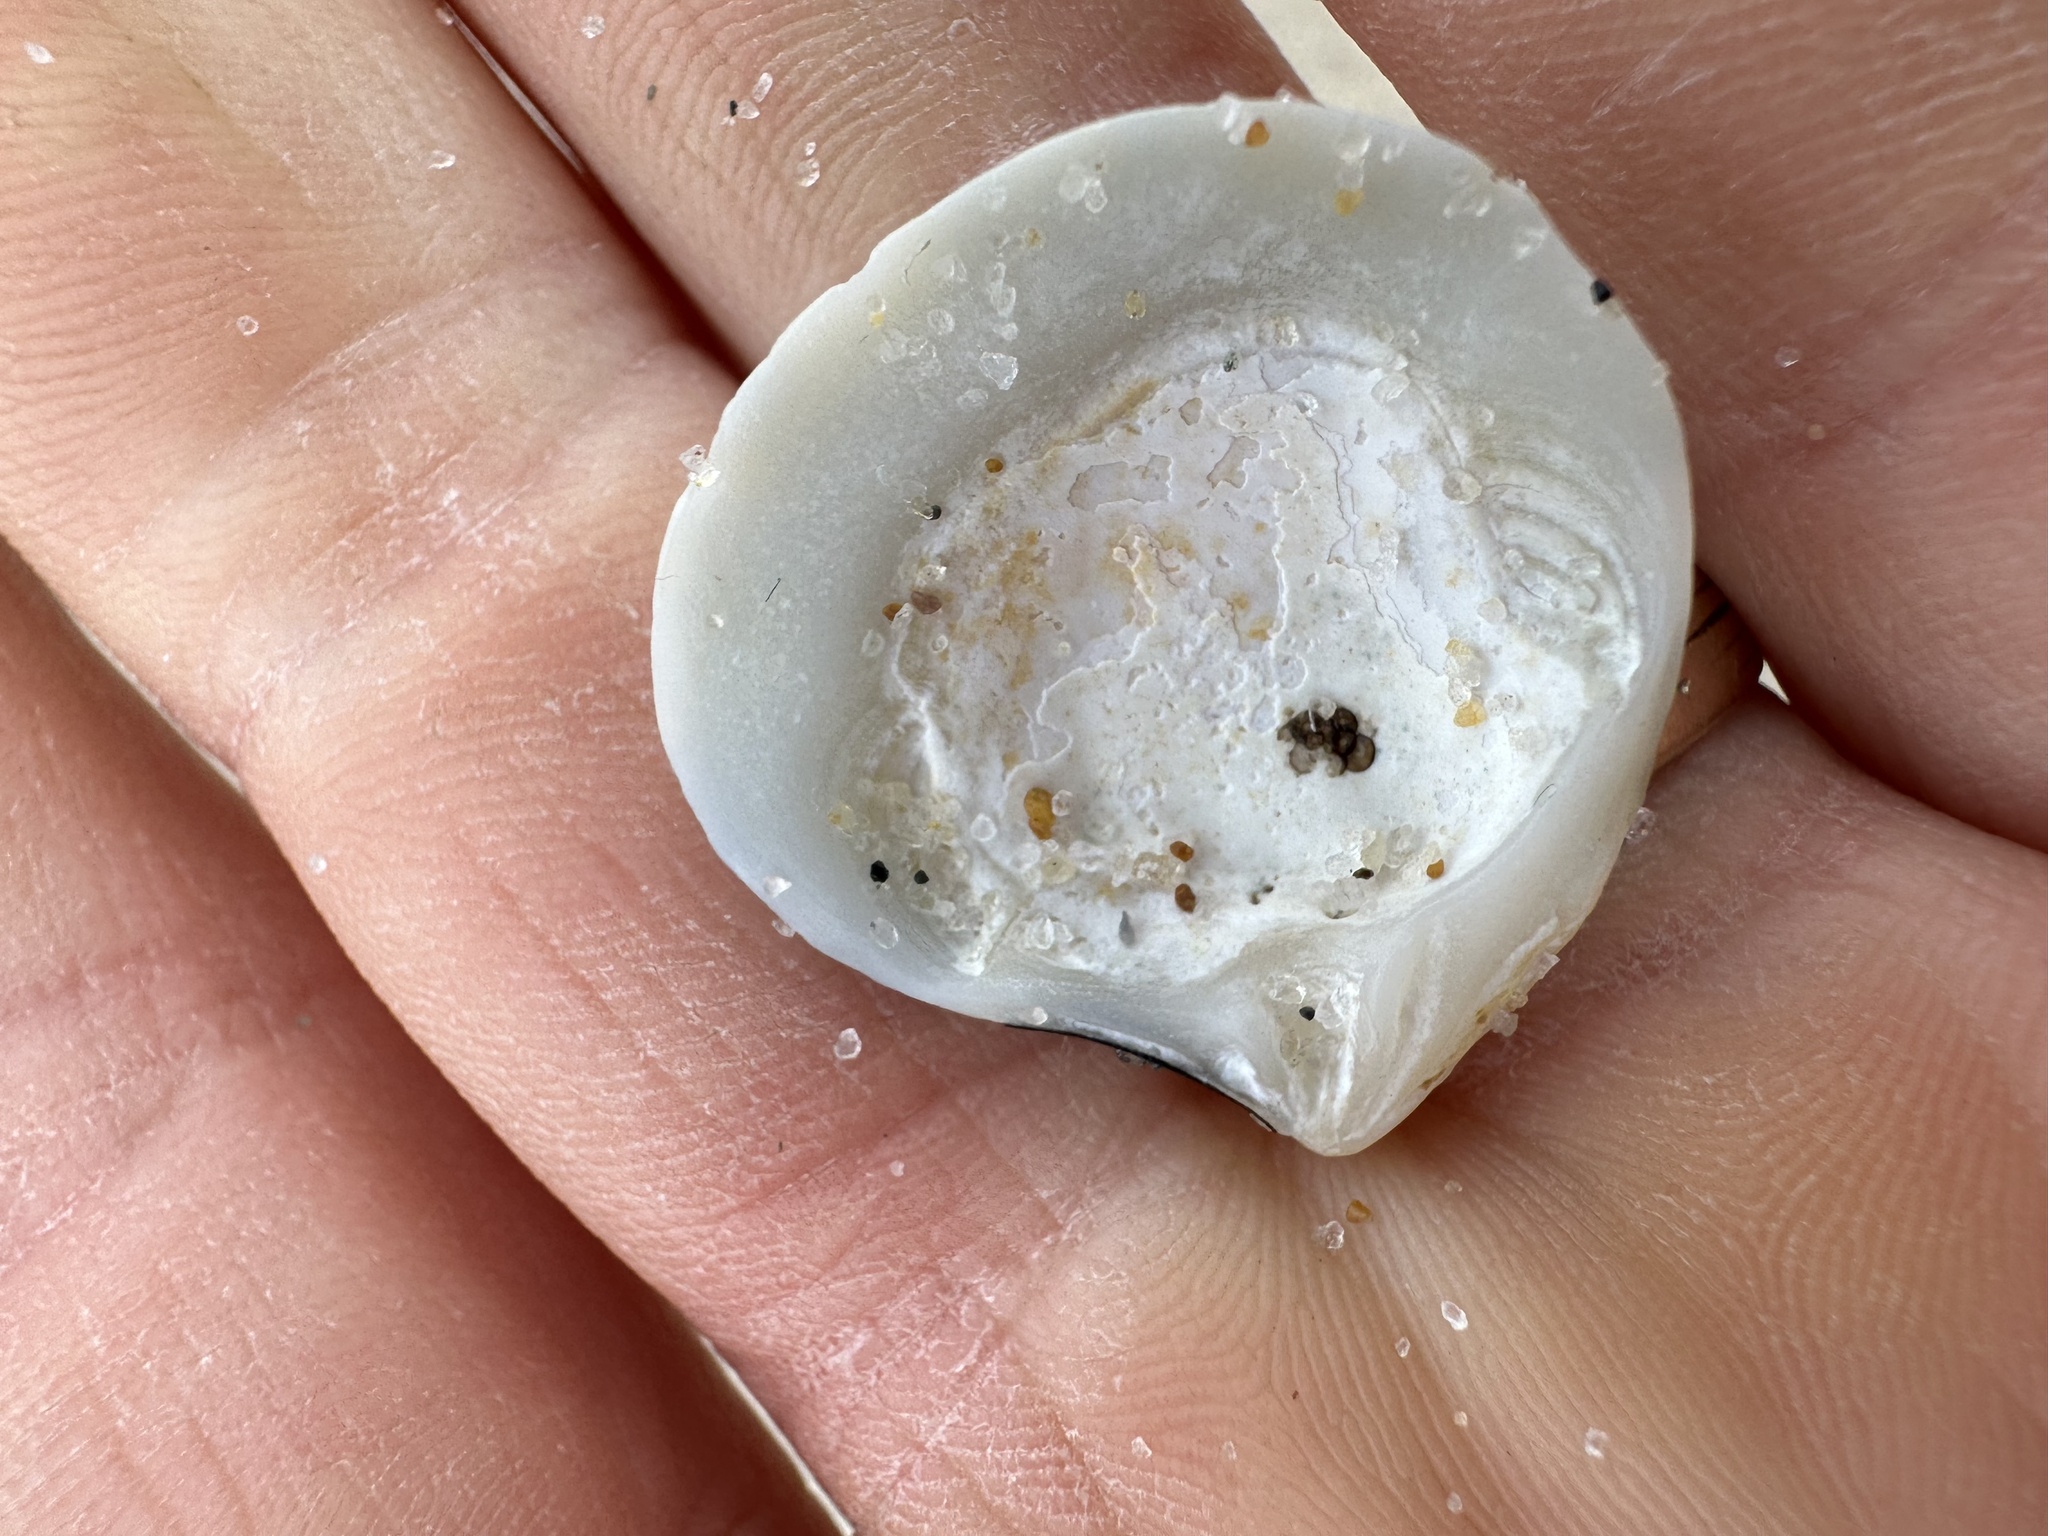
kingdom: Animalia
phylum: Mollusca
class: Bivalvia
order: Cardiida
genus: Isocrassina
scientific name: Isocrassina
